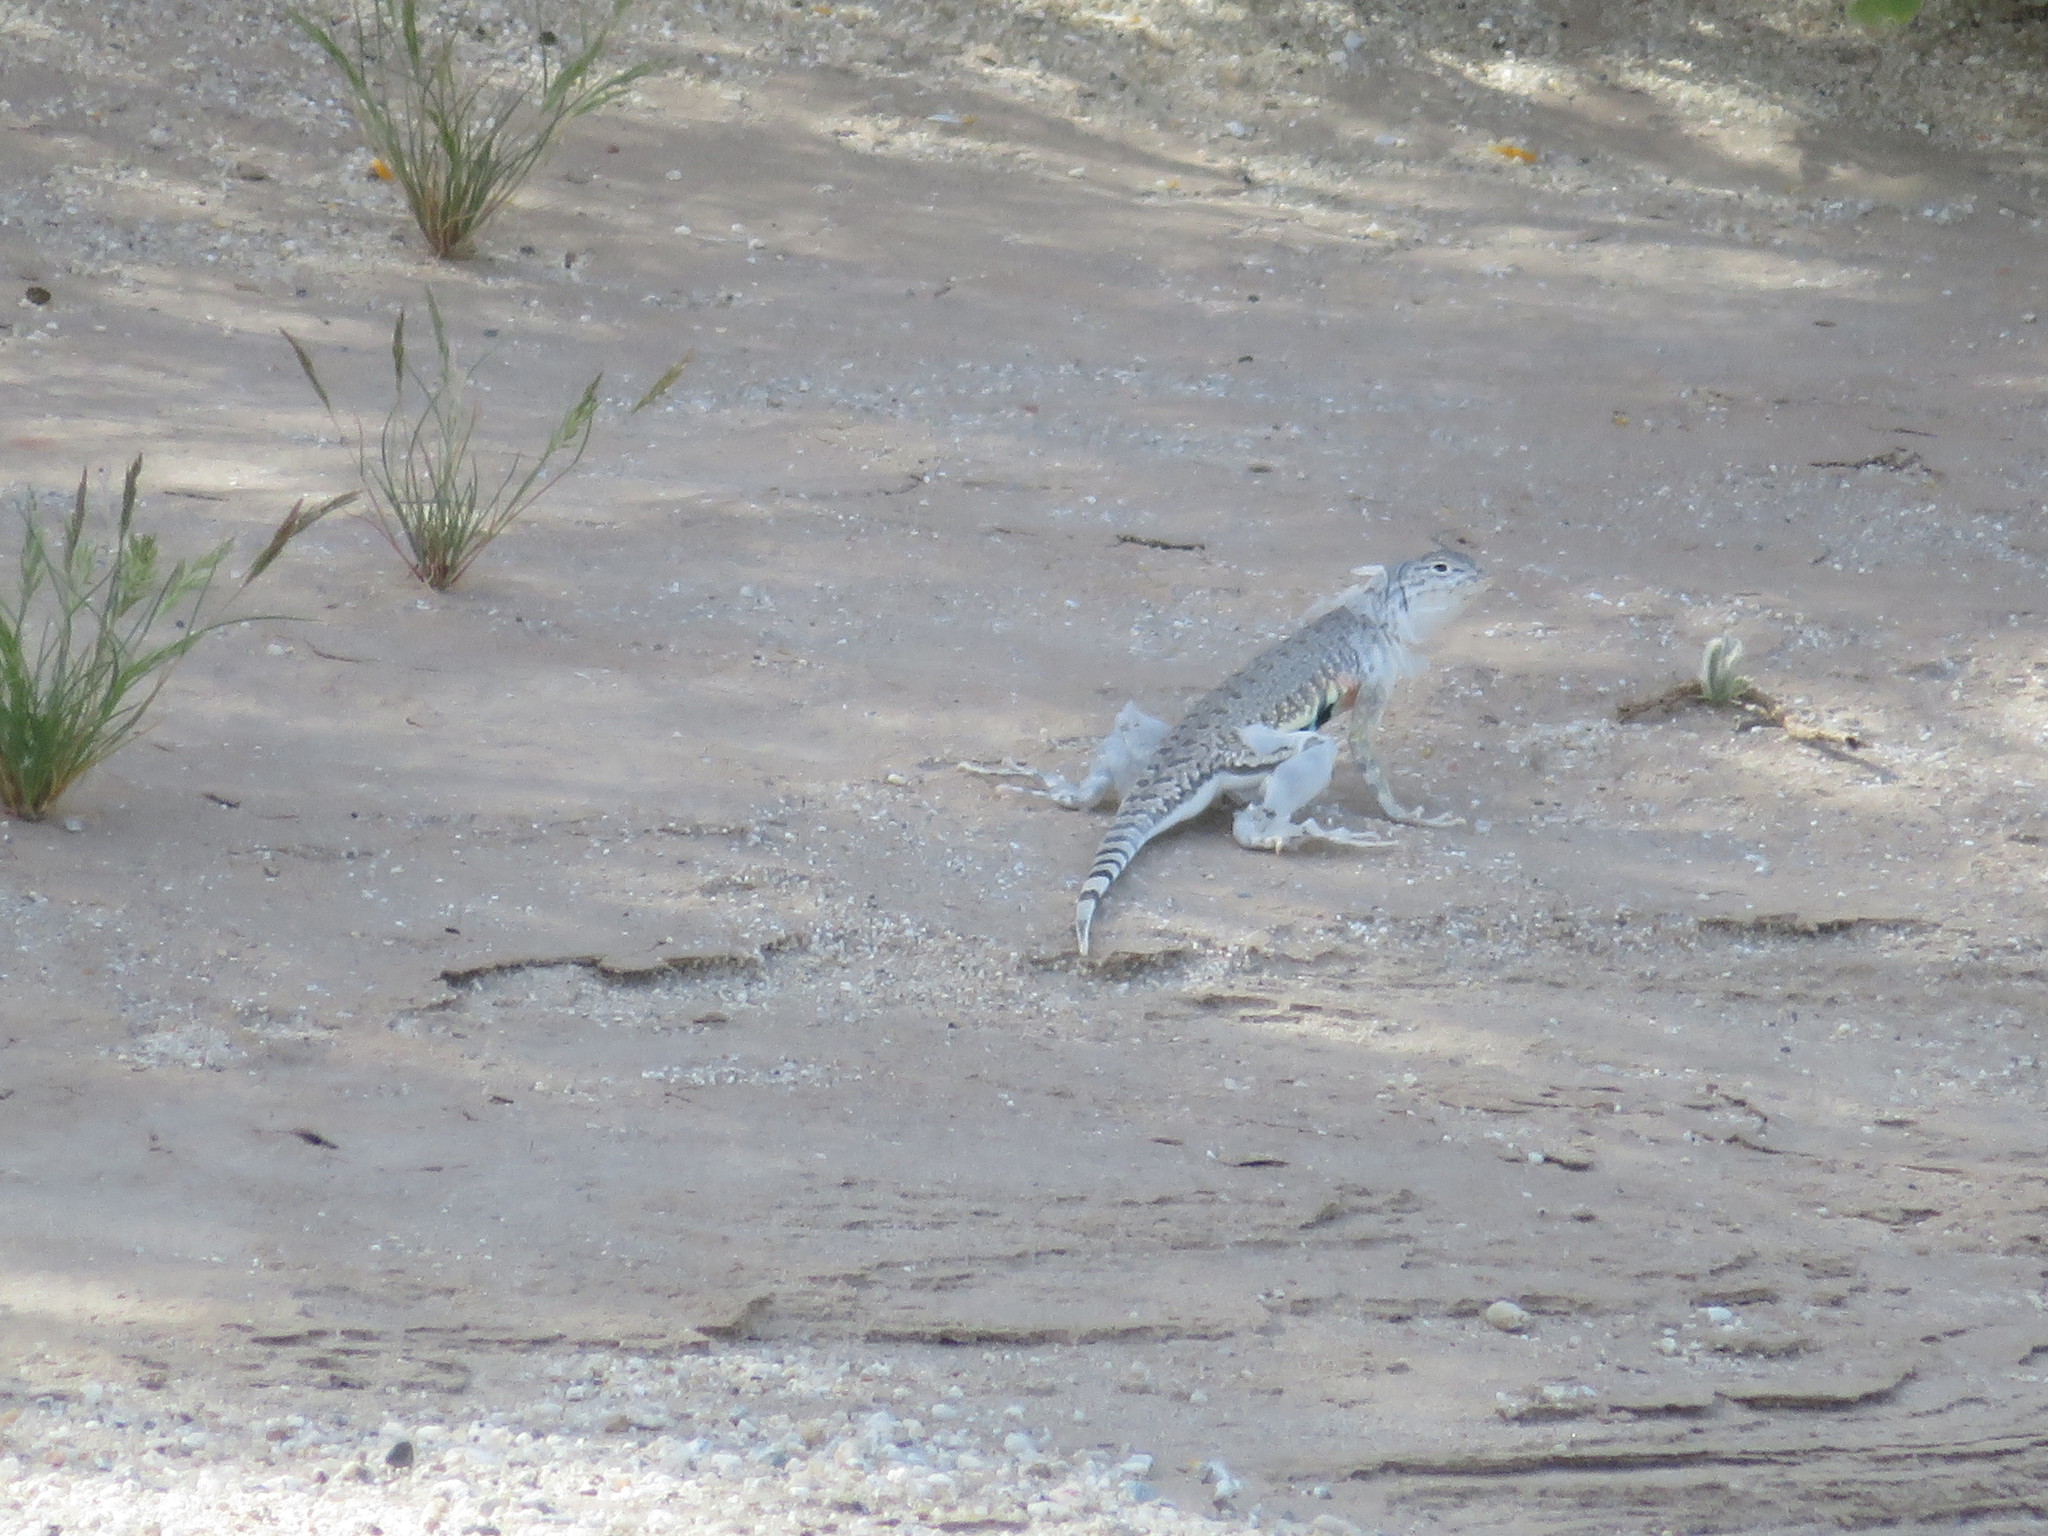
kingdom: Animalia
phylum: Chordata
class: Squamata
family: Phrynosomatidae
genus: Callisaurus
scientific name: Callisaurus draconoides
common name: Zebra-tailed lizard
